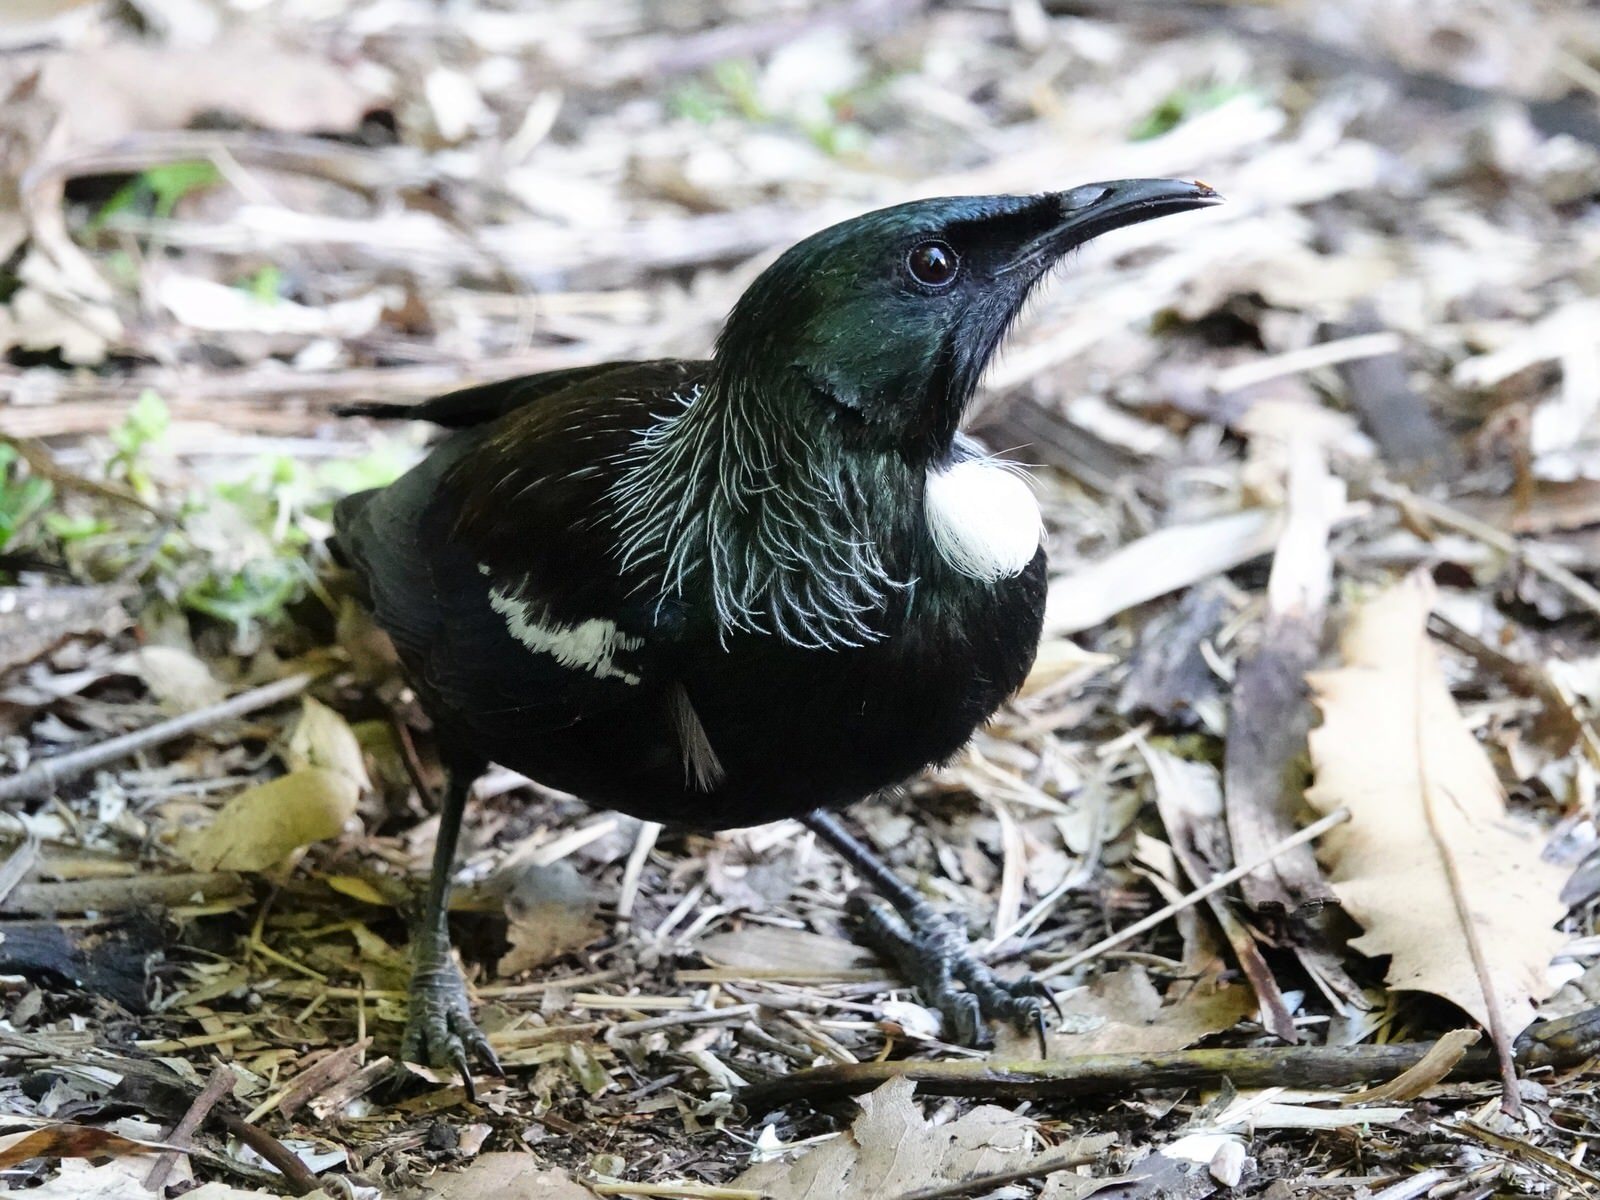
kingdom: Animalia
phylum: Chordata
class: Aves
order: Passeriformes
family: Meliphagidae
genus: Prosthemadera
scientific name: Prosthemadera novaeseelandiae
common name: Tui
